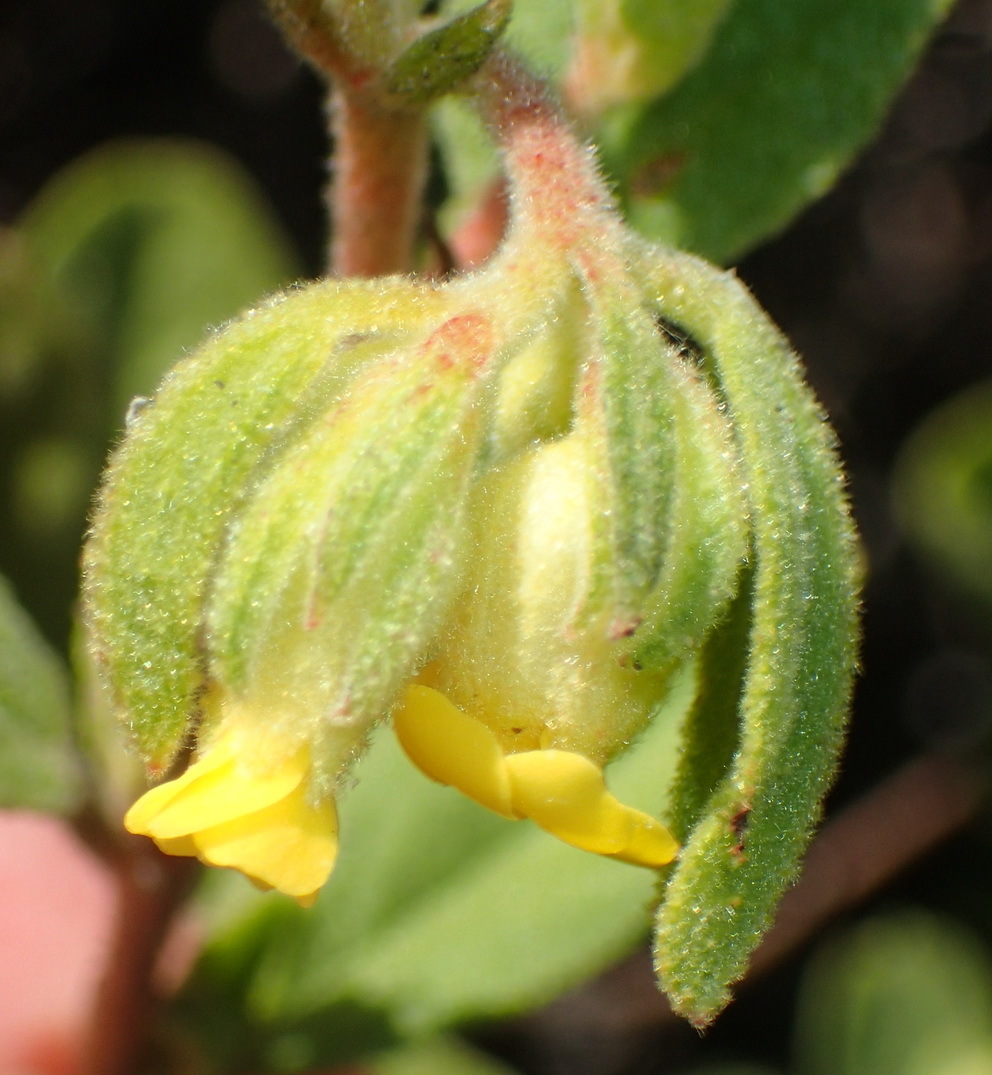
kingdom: Plantae
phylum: Tracheophyta
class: Magnoliopsida
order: Malvales
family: Malvaceae
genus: Hermannia
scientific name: Hermannia salviifolia
